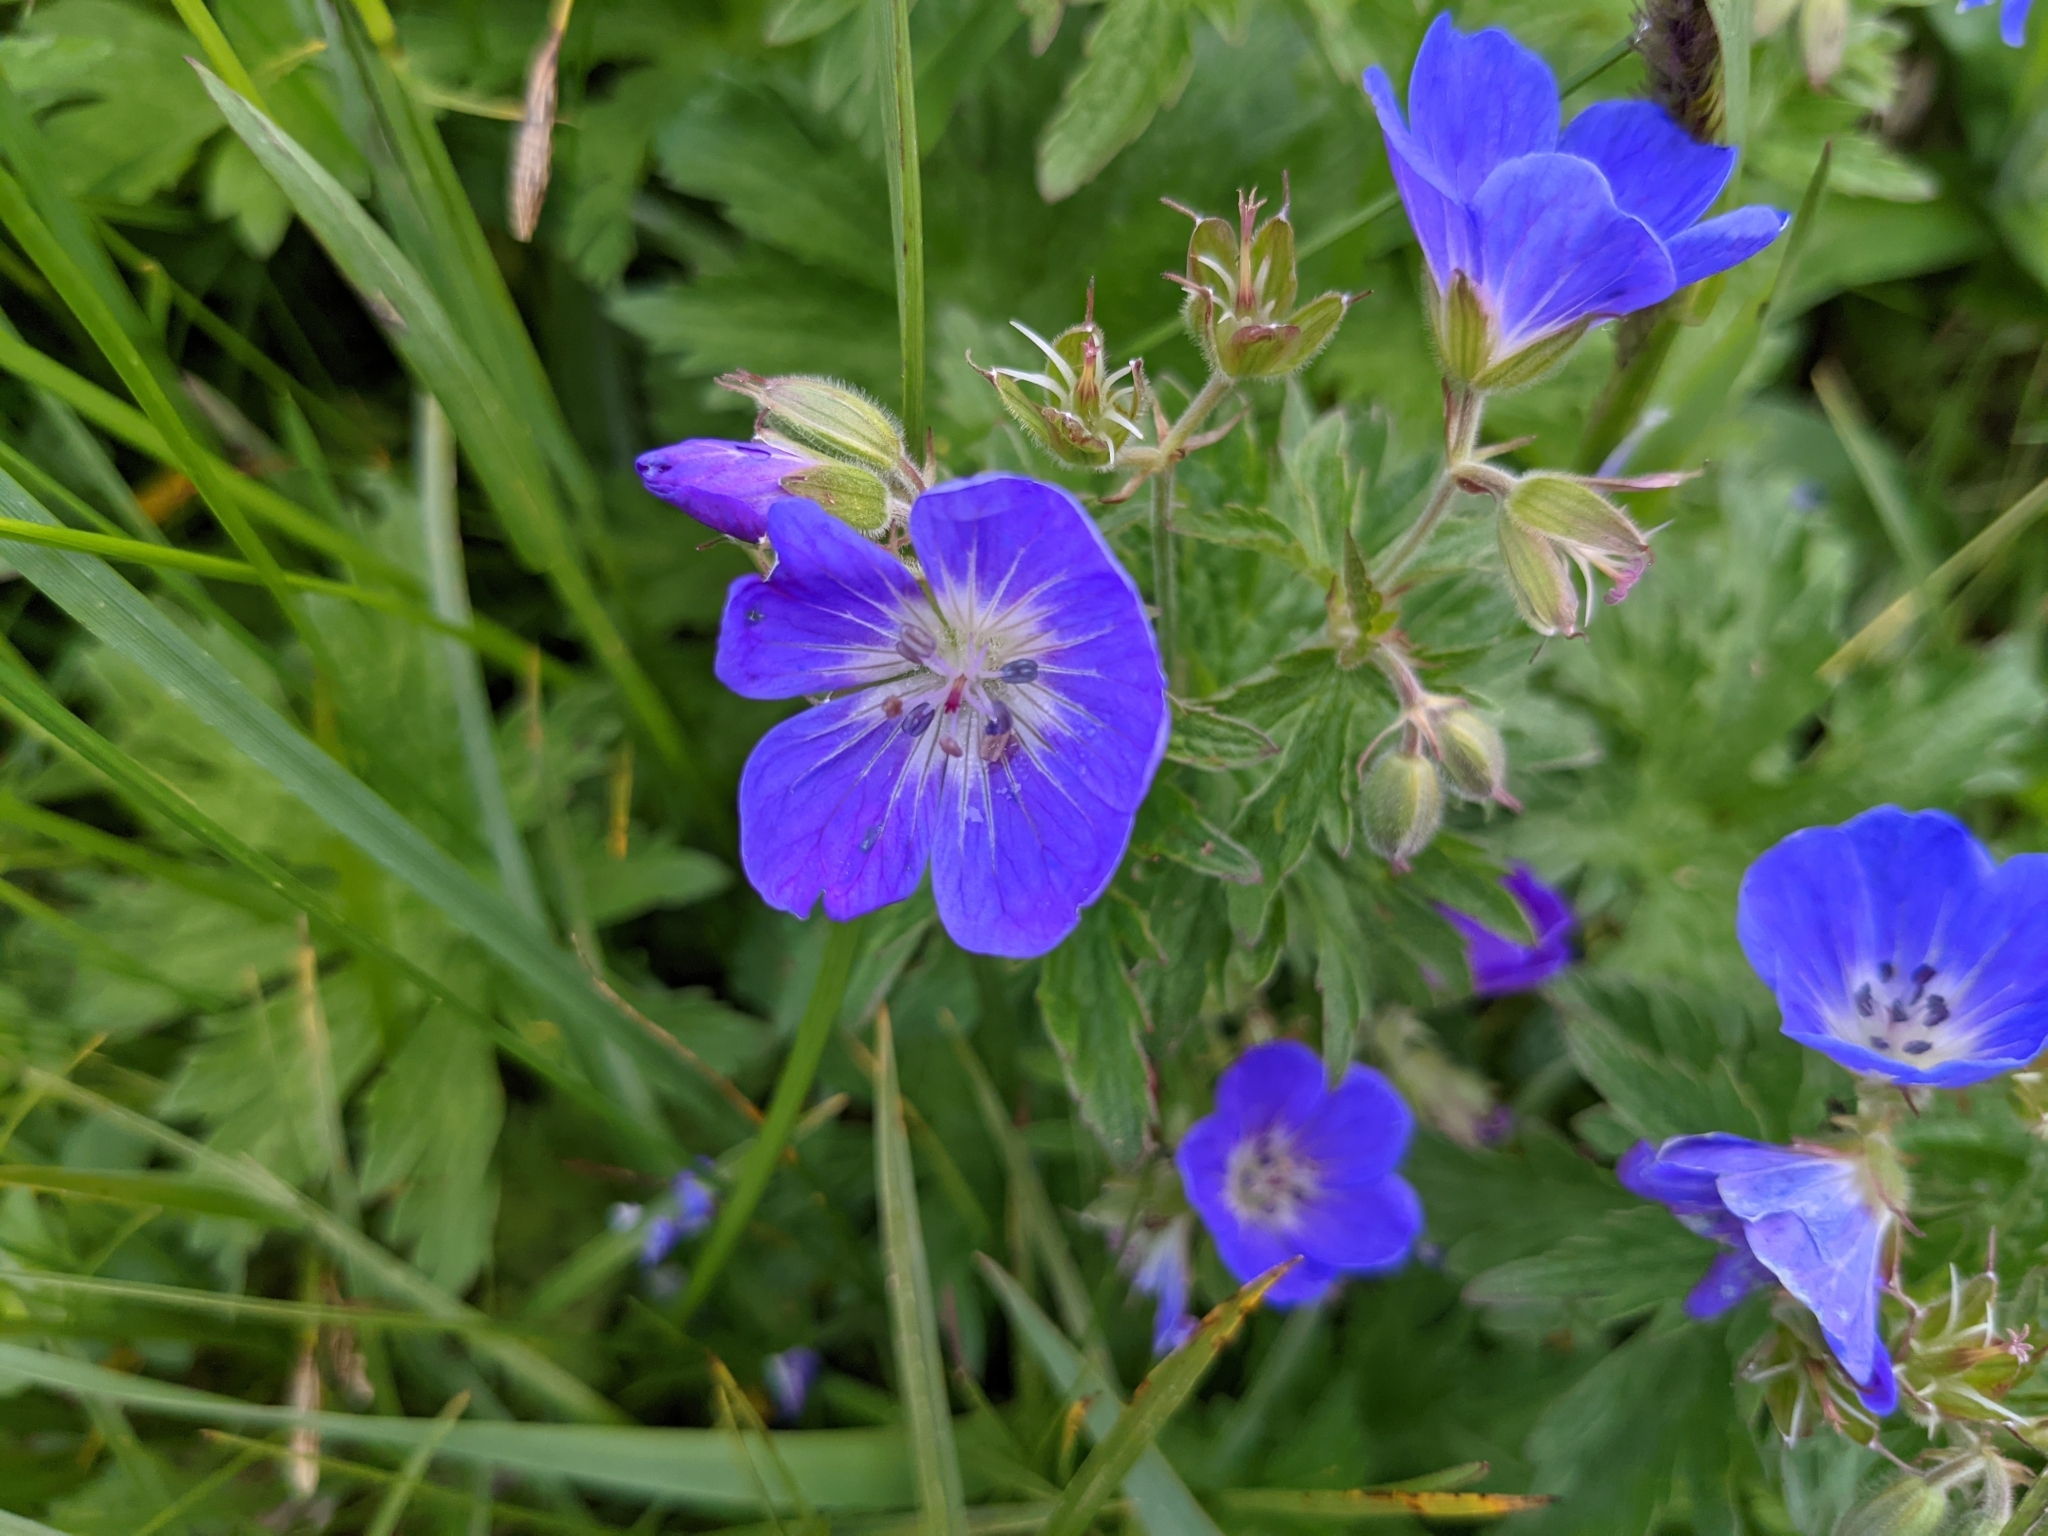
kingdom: Plantae
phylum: Tracheophyta
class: Magnoliopsida
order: Geraniales
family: Geraniaceae
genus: Geranium
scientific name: Geranium sylvaticum
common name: Wood crane's-bill
